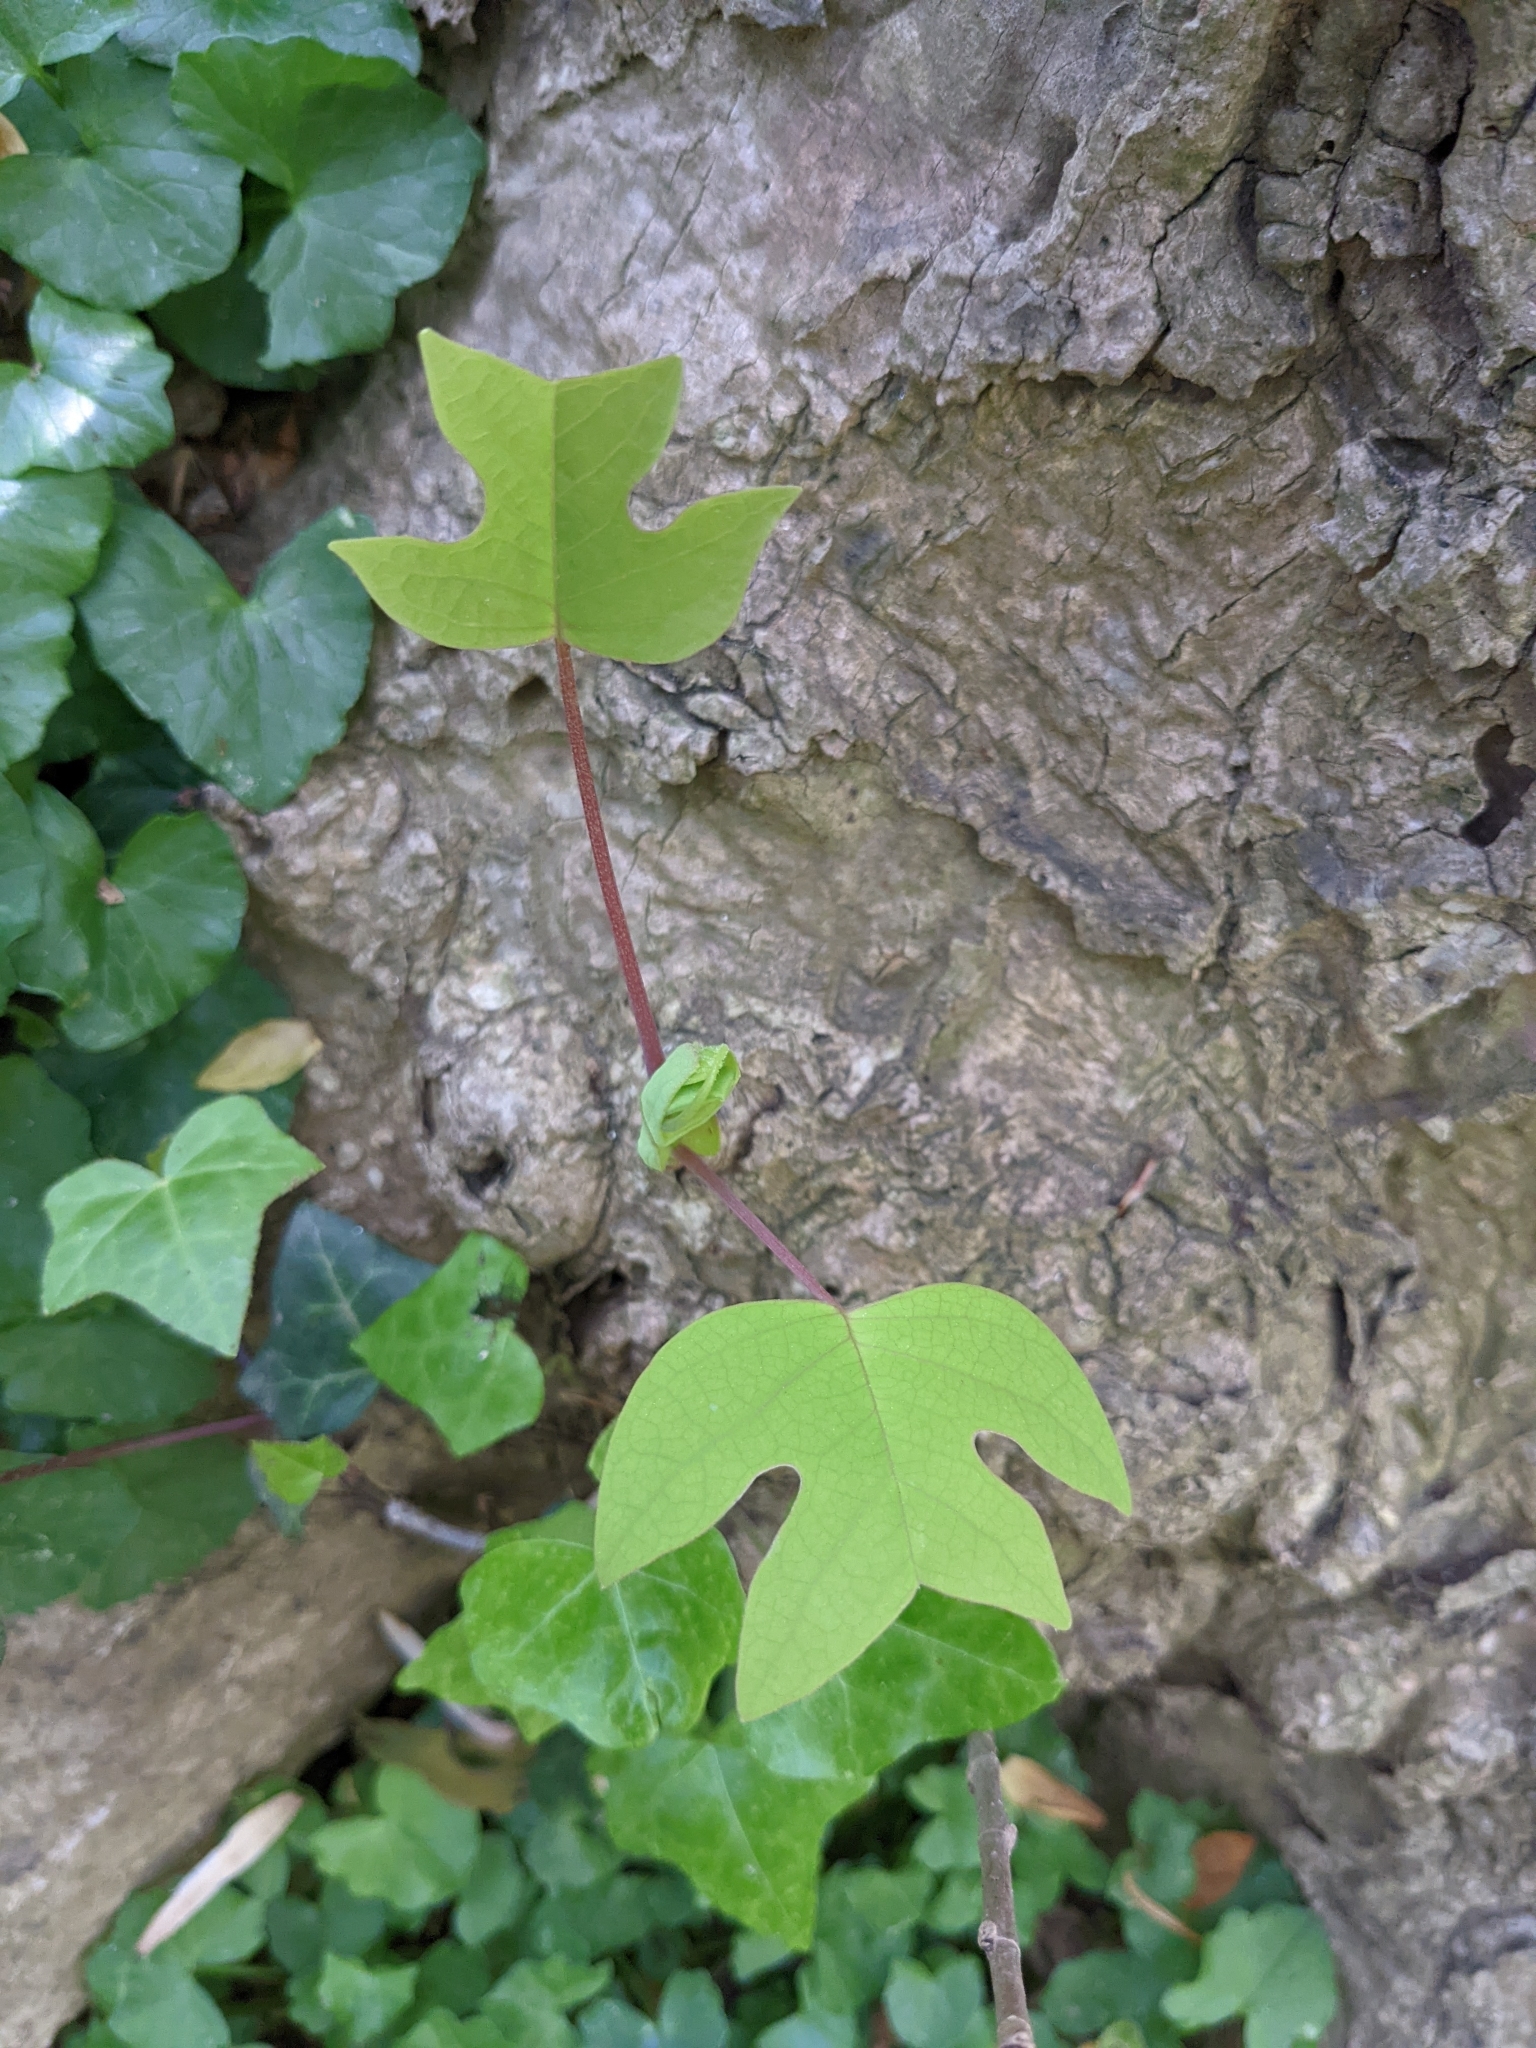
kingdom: Plantae
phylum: Tracheophyta
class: Magnoliopsida
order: Magnoliales
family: Magnoliaceae
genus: Liriodendron
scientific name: Liriodendron tulipifera
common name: Tulip tree
